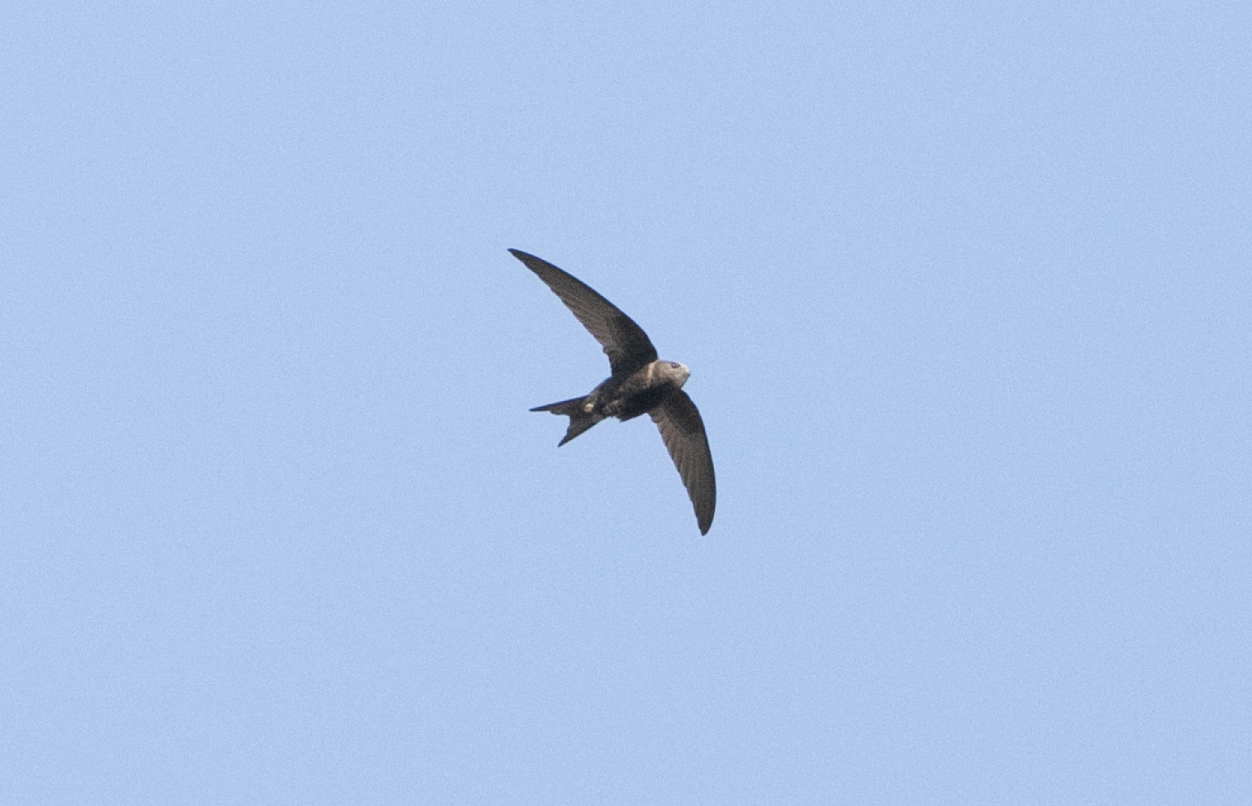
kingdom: Animalia
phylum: Chordata
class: Aves
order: Apodiformes
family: Apodidae
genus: Apus
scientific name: Apus apus
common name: Common swift
